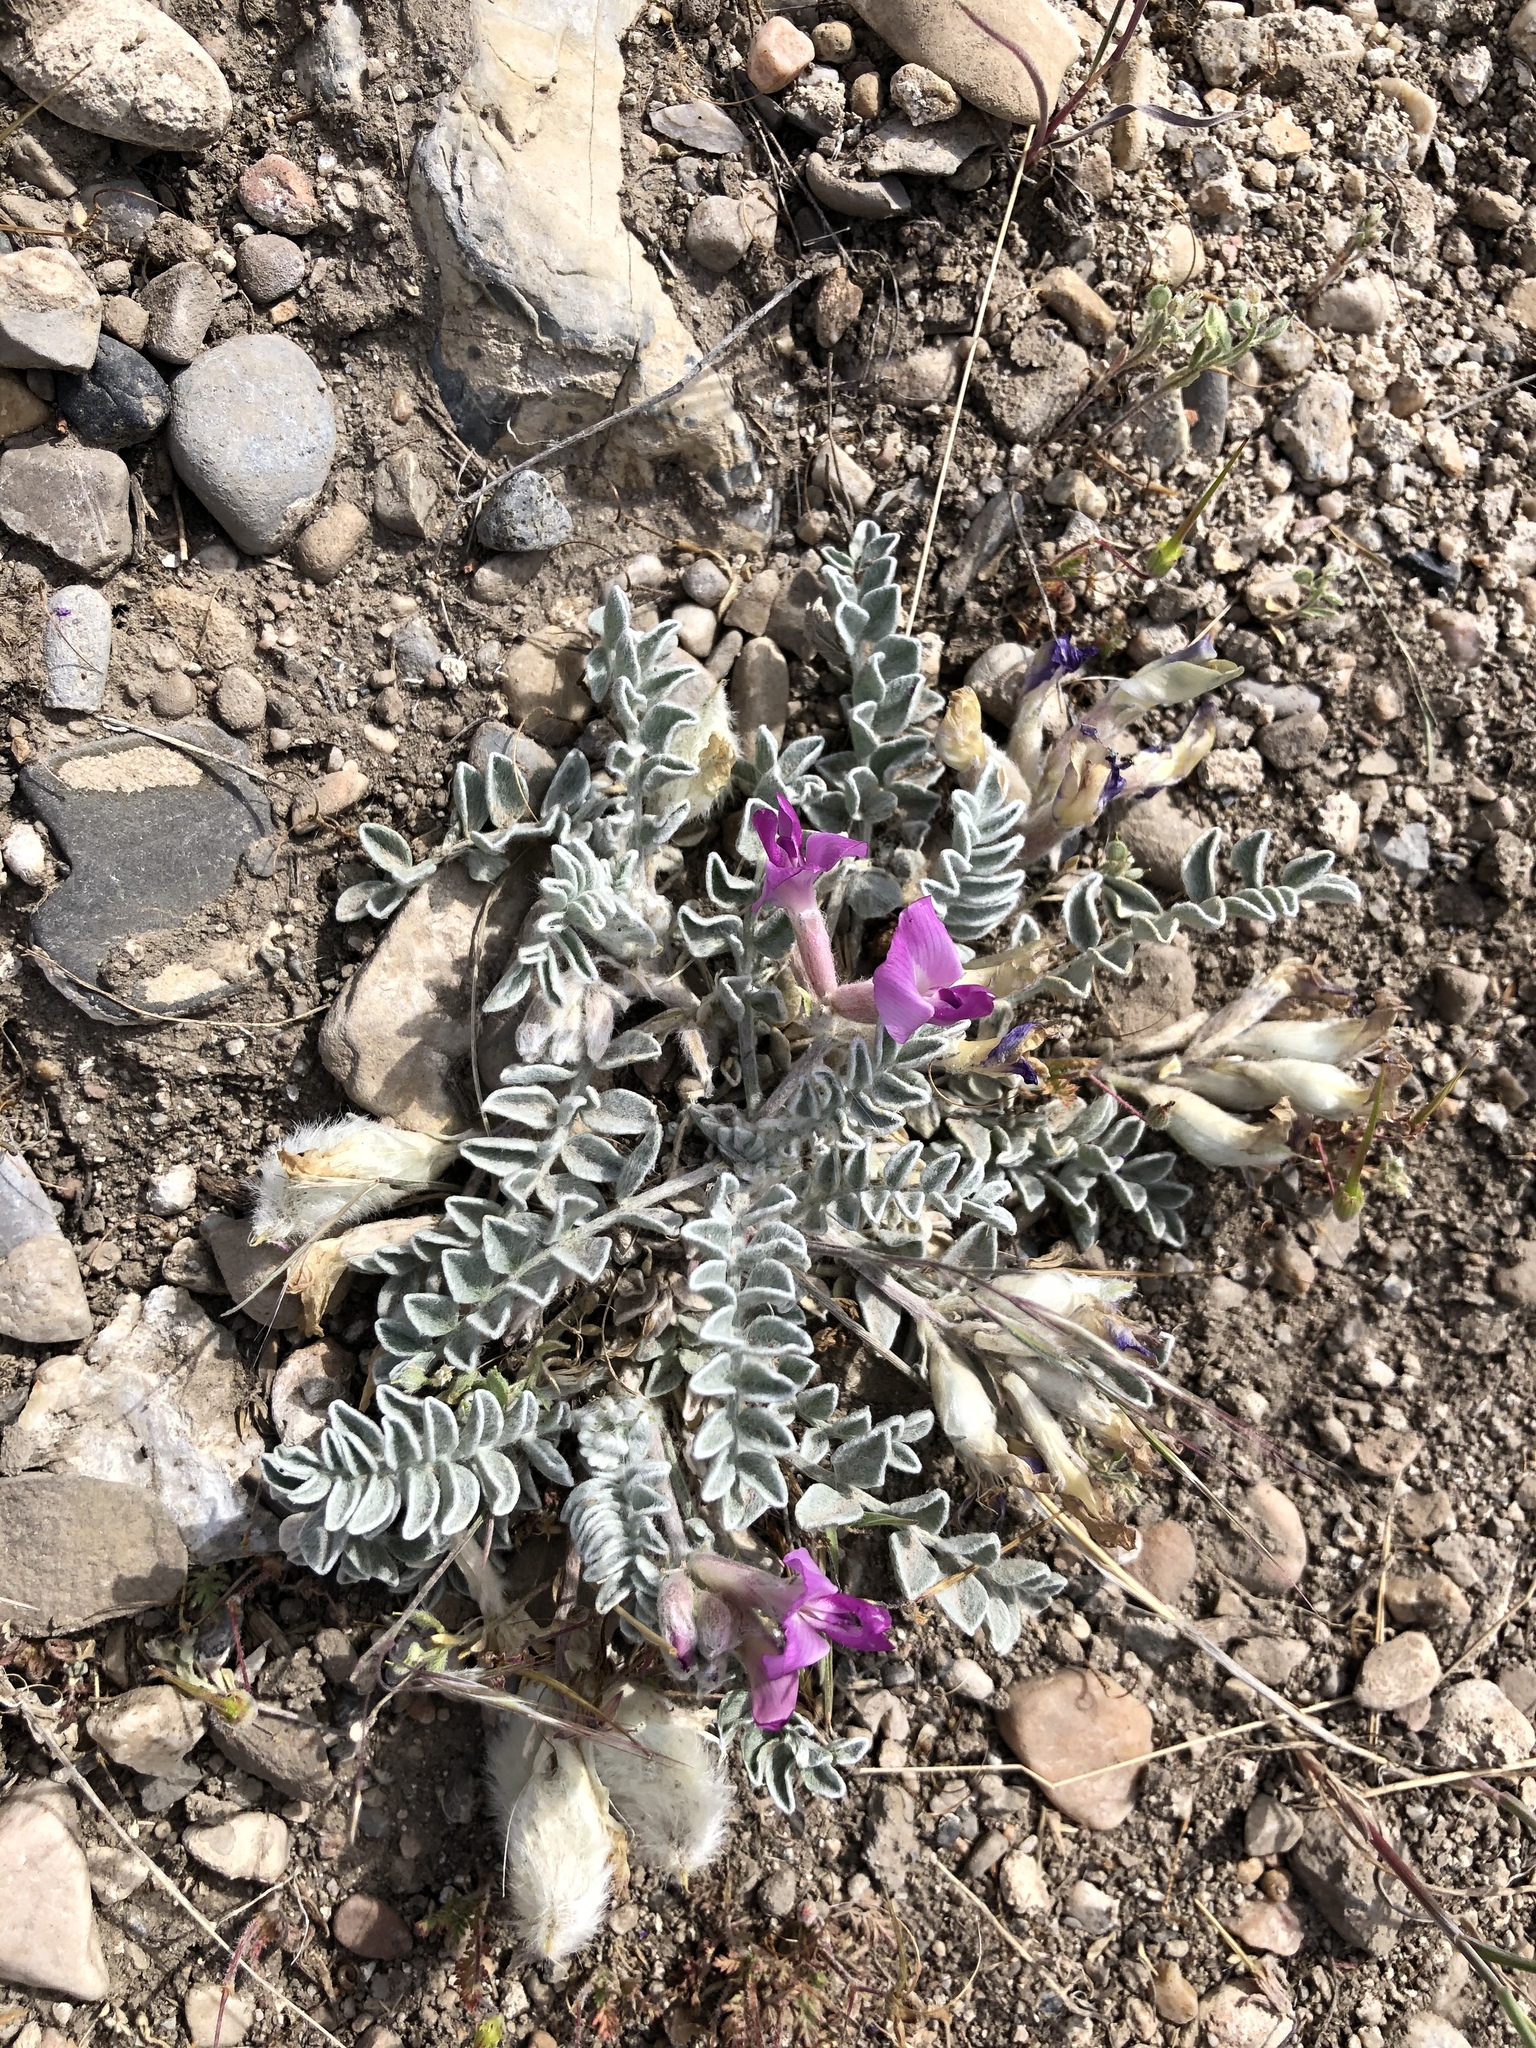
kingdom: Plantae
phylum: Tracheophyta
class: Magnoliopsida
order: Fabales
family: Fabaceae
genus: Astragalus
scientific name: Astragalus utahensis
